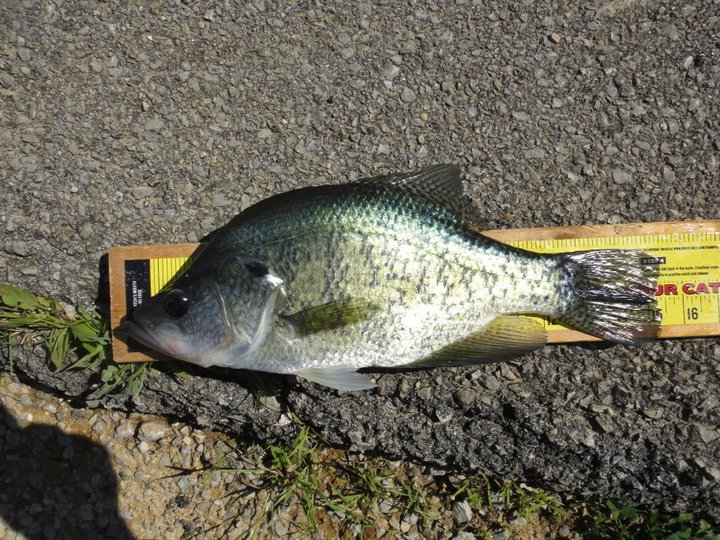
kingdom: Animalia
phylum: Chordata
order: Perciformes
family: Centrarchidae
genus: Pomoxis
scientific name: Pomoxis annularis
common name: White crappie
